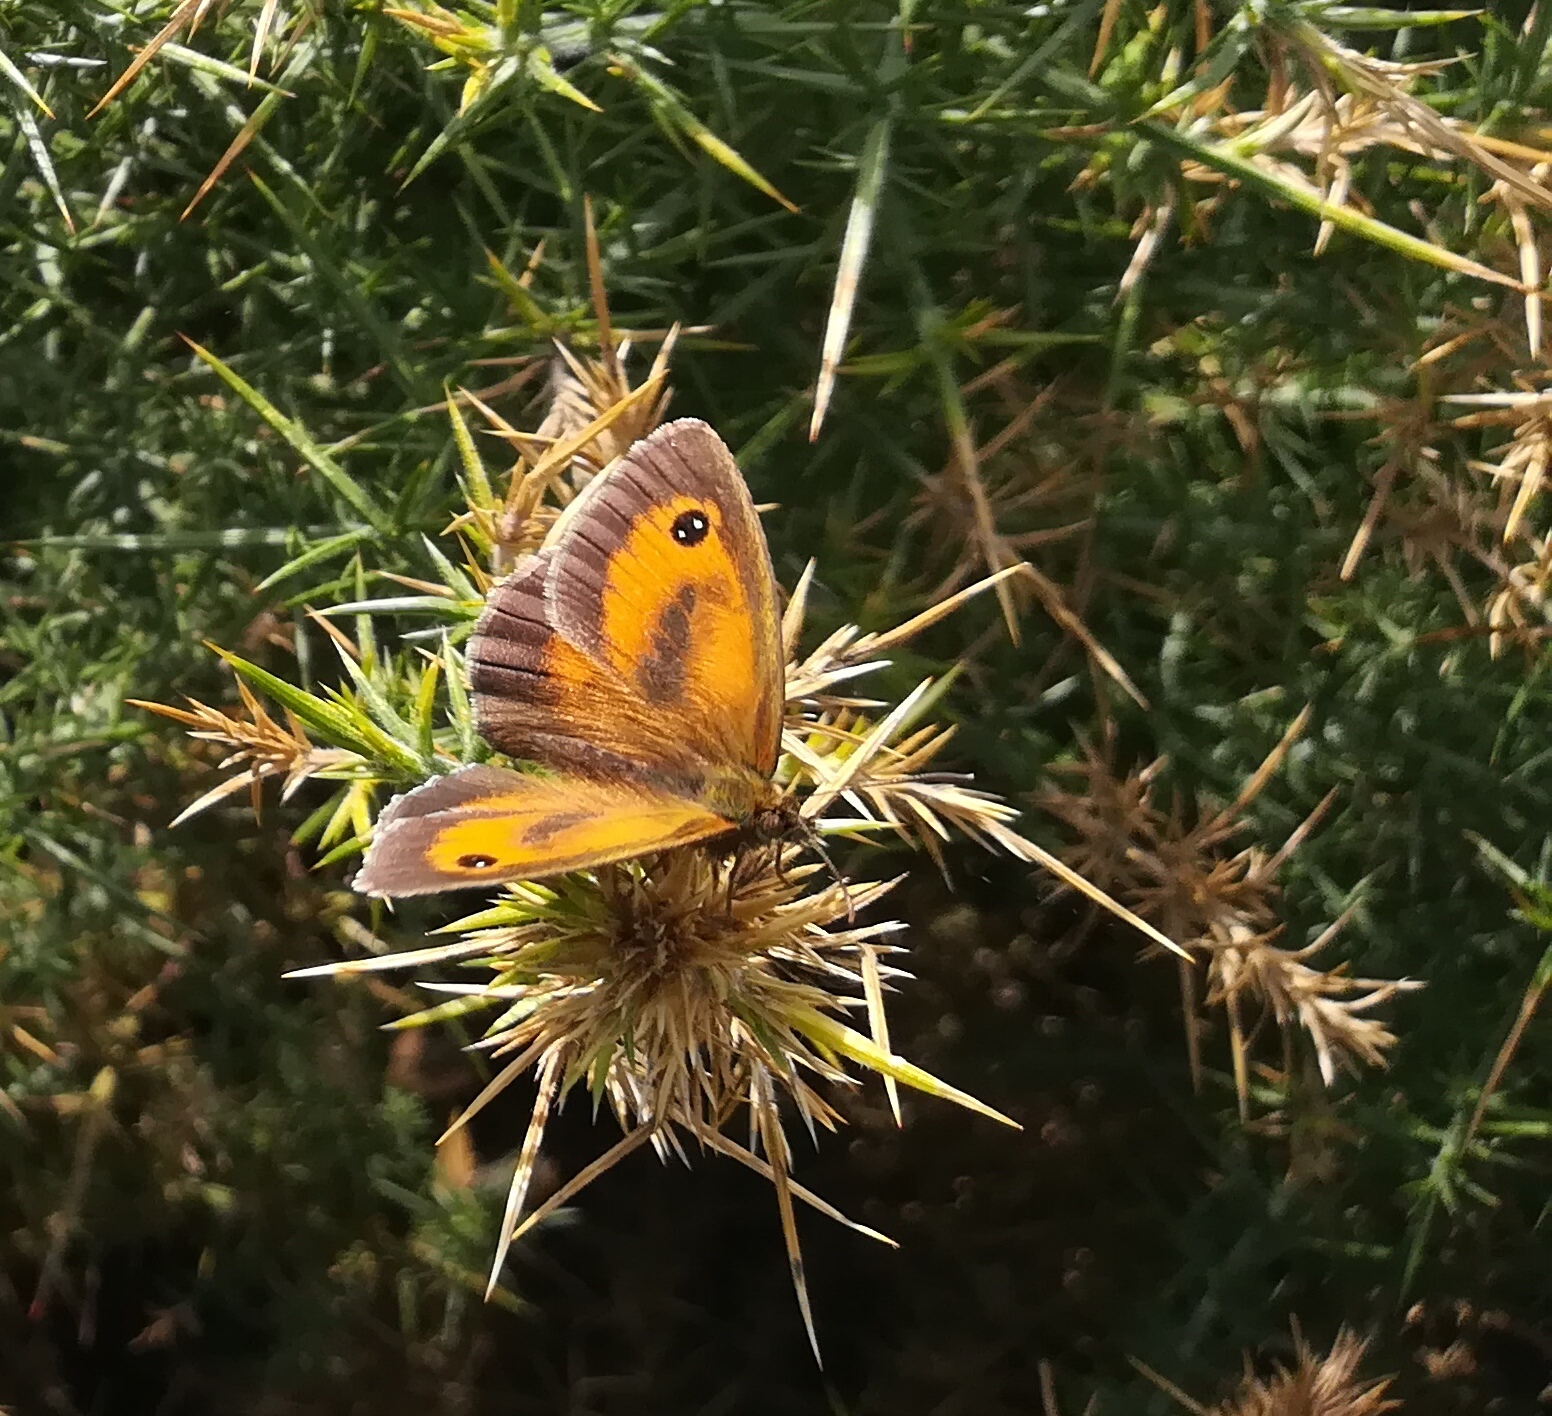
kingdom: Animalia
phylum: Arthropoda
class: Insecta
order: Lepidoptera
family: Nymphalidae
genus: Pyronia
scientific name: Pyronia tithonus
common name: Gatekeeper
